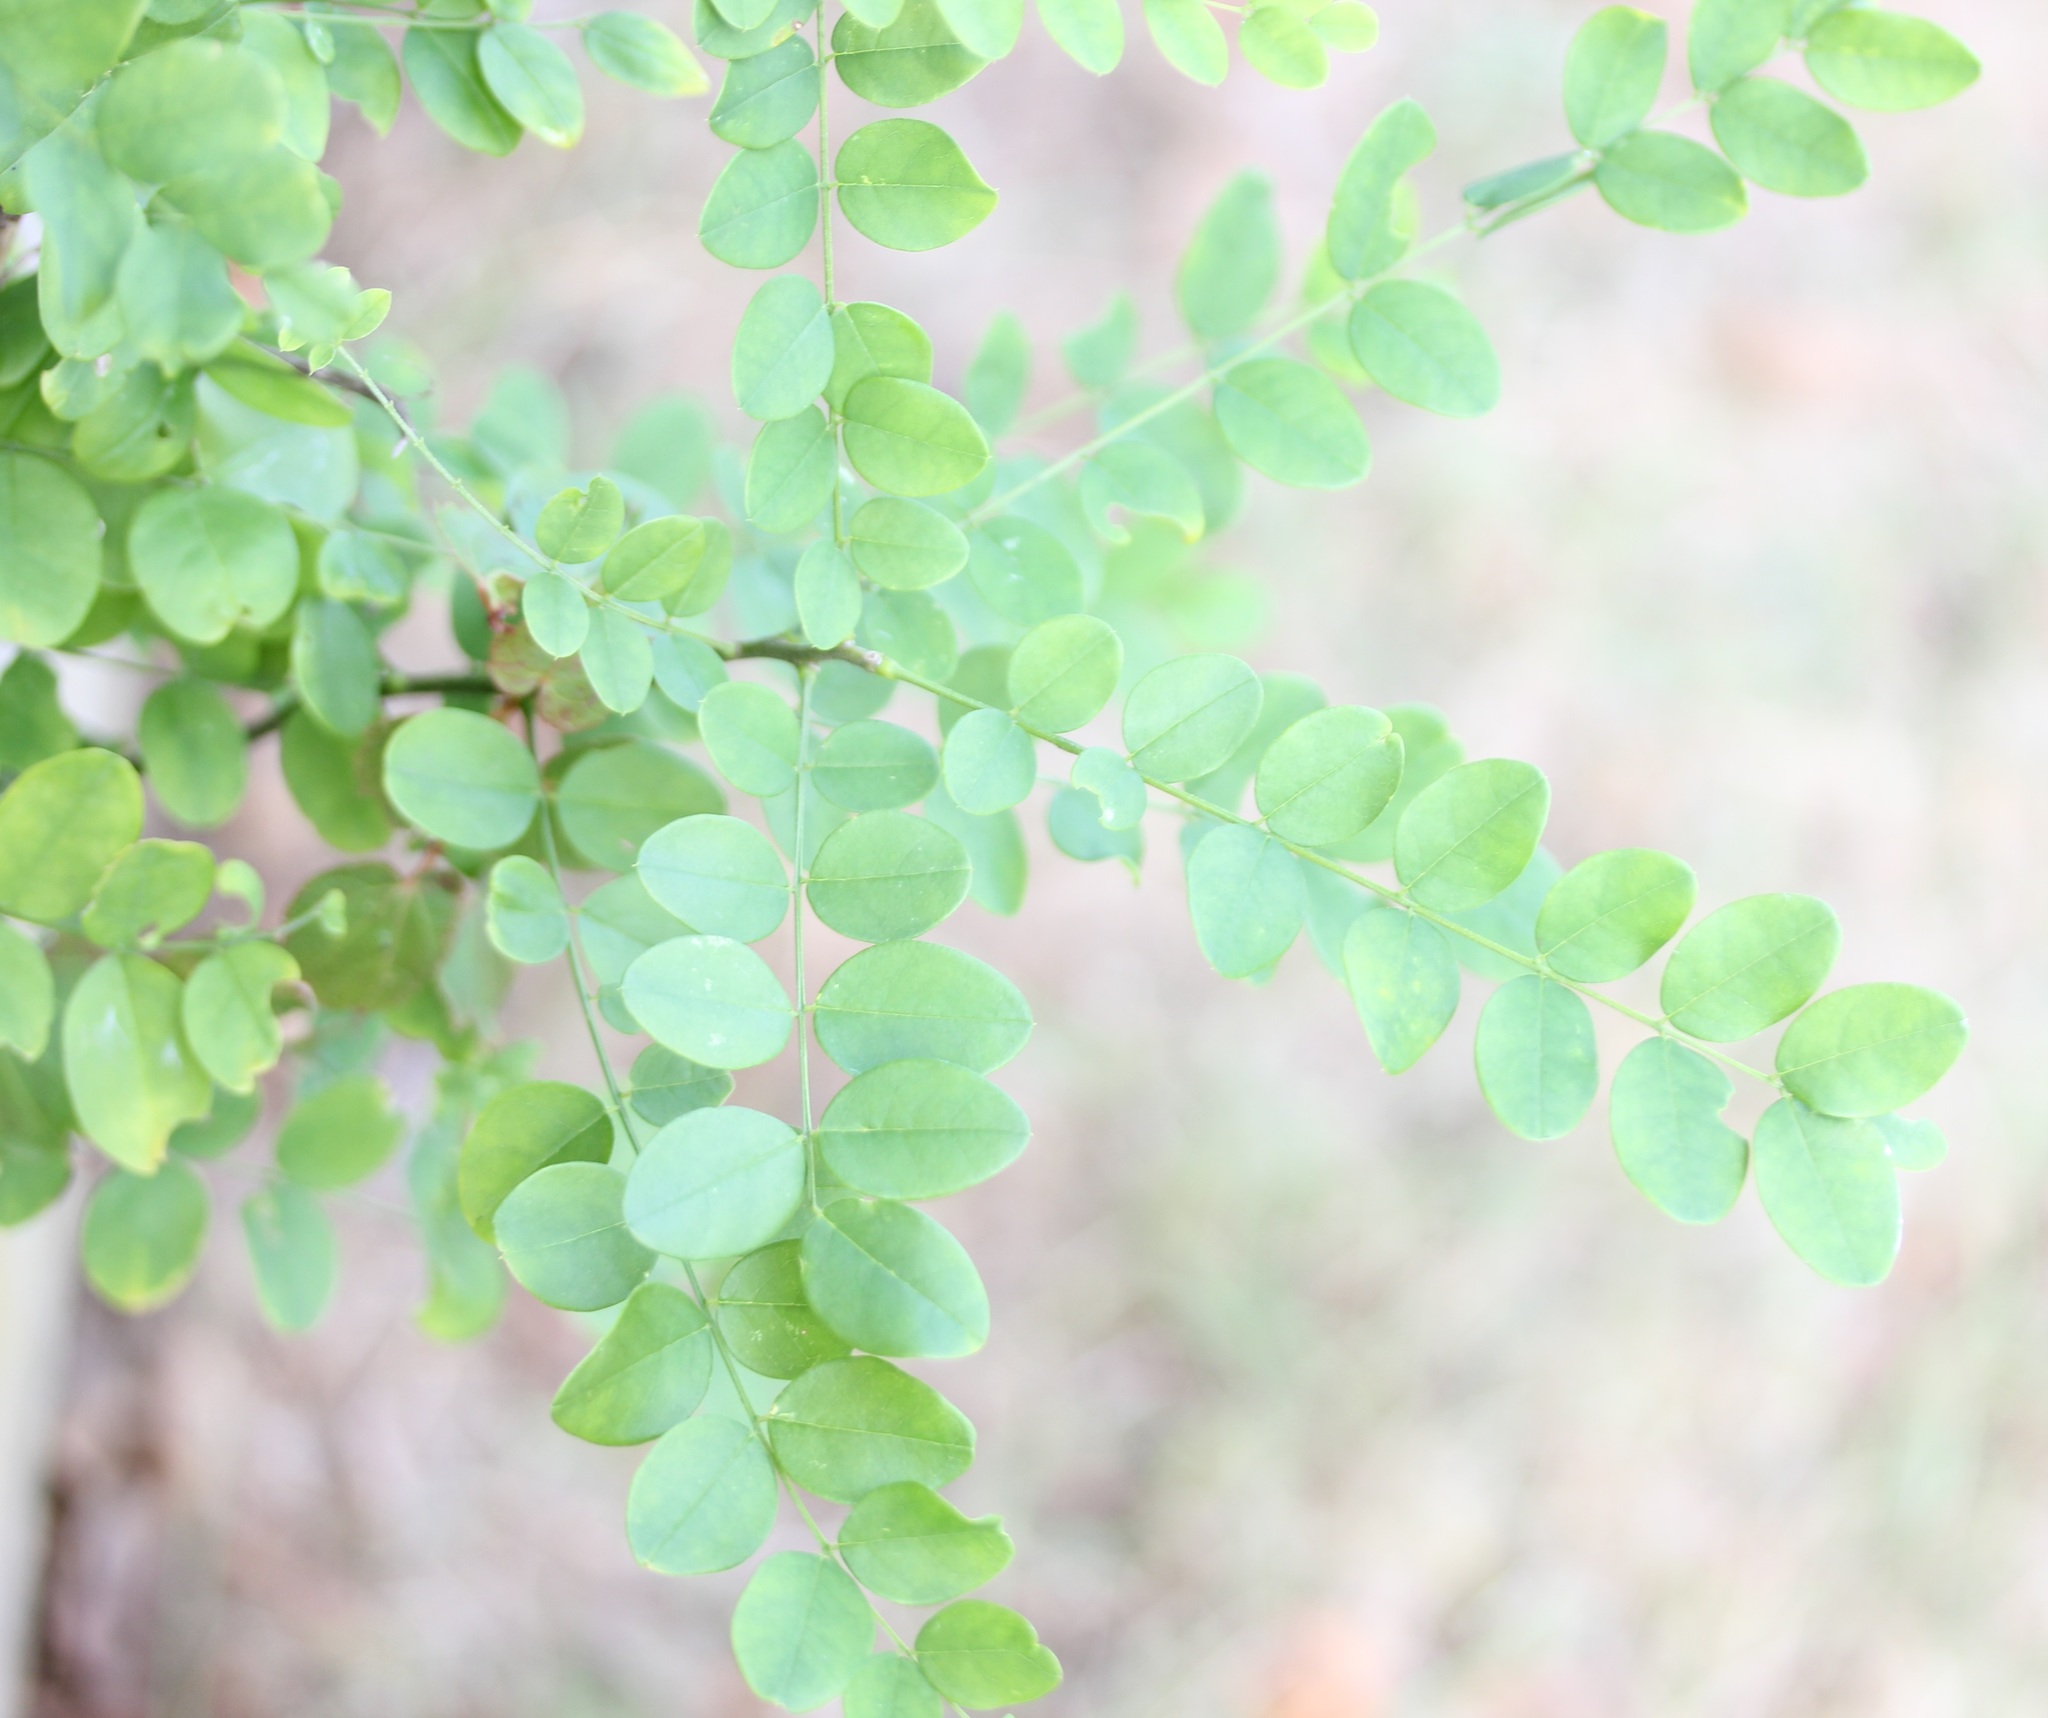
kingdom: Plantae
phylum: Tracheophyta
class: Magnoliopsida
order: Fabales
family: Fabaceae
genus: Colutea
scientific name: Colutea arborescens
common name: Bladder-senna
